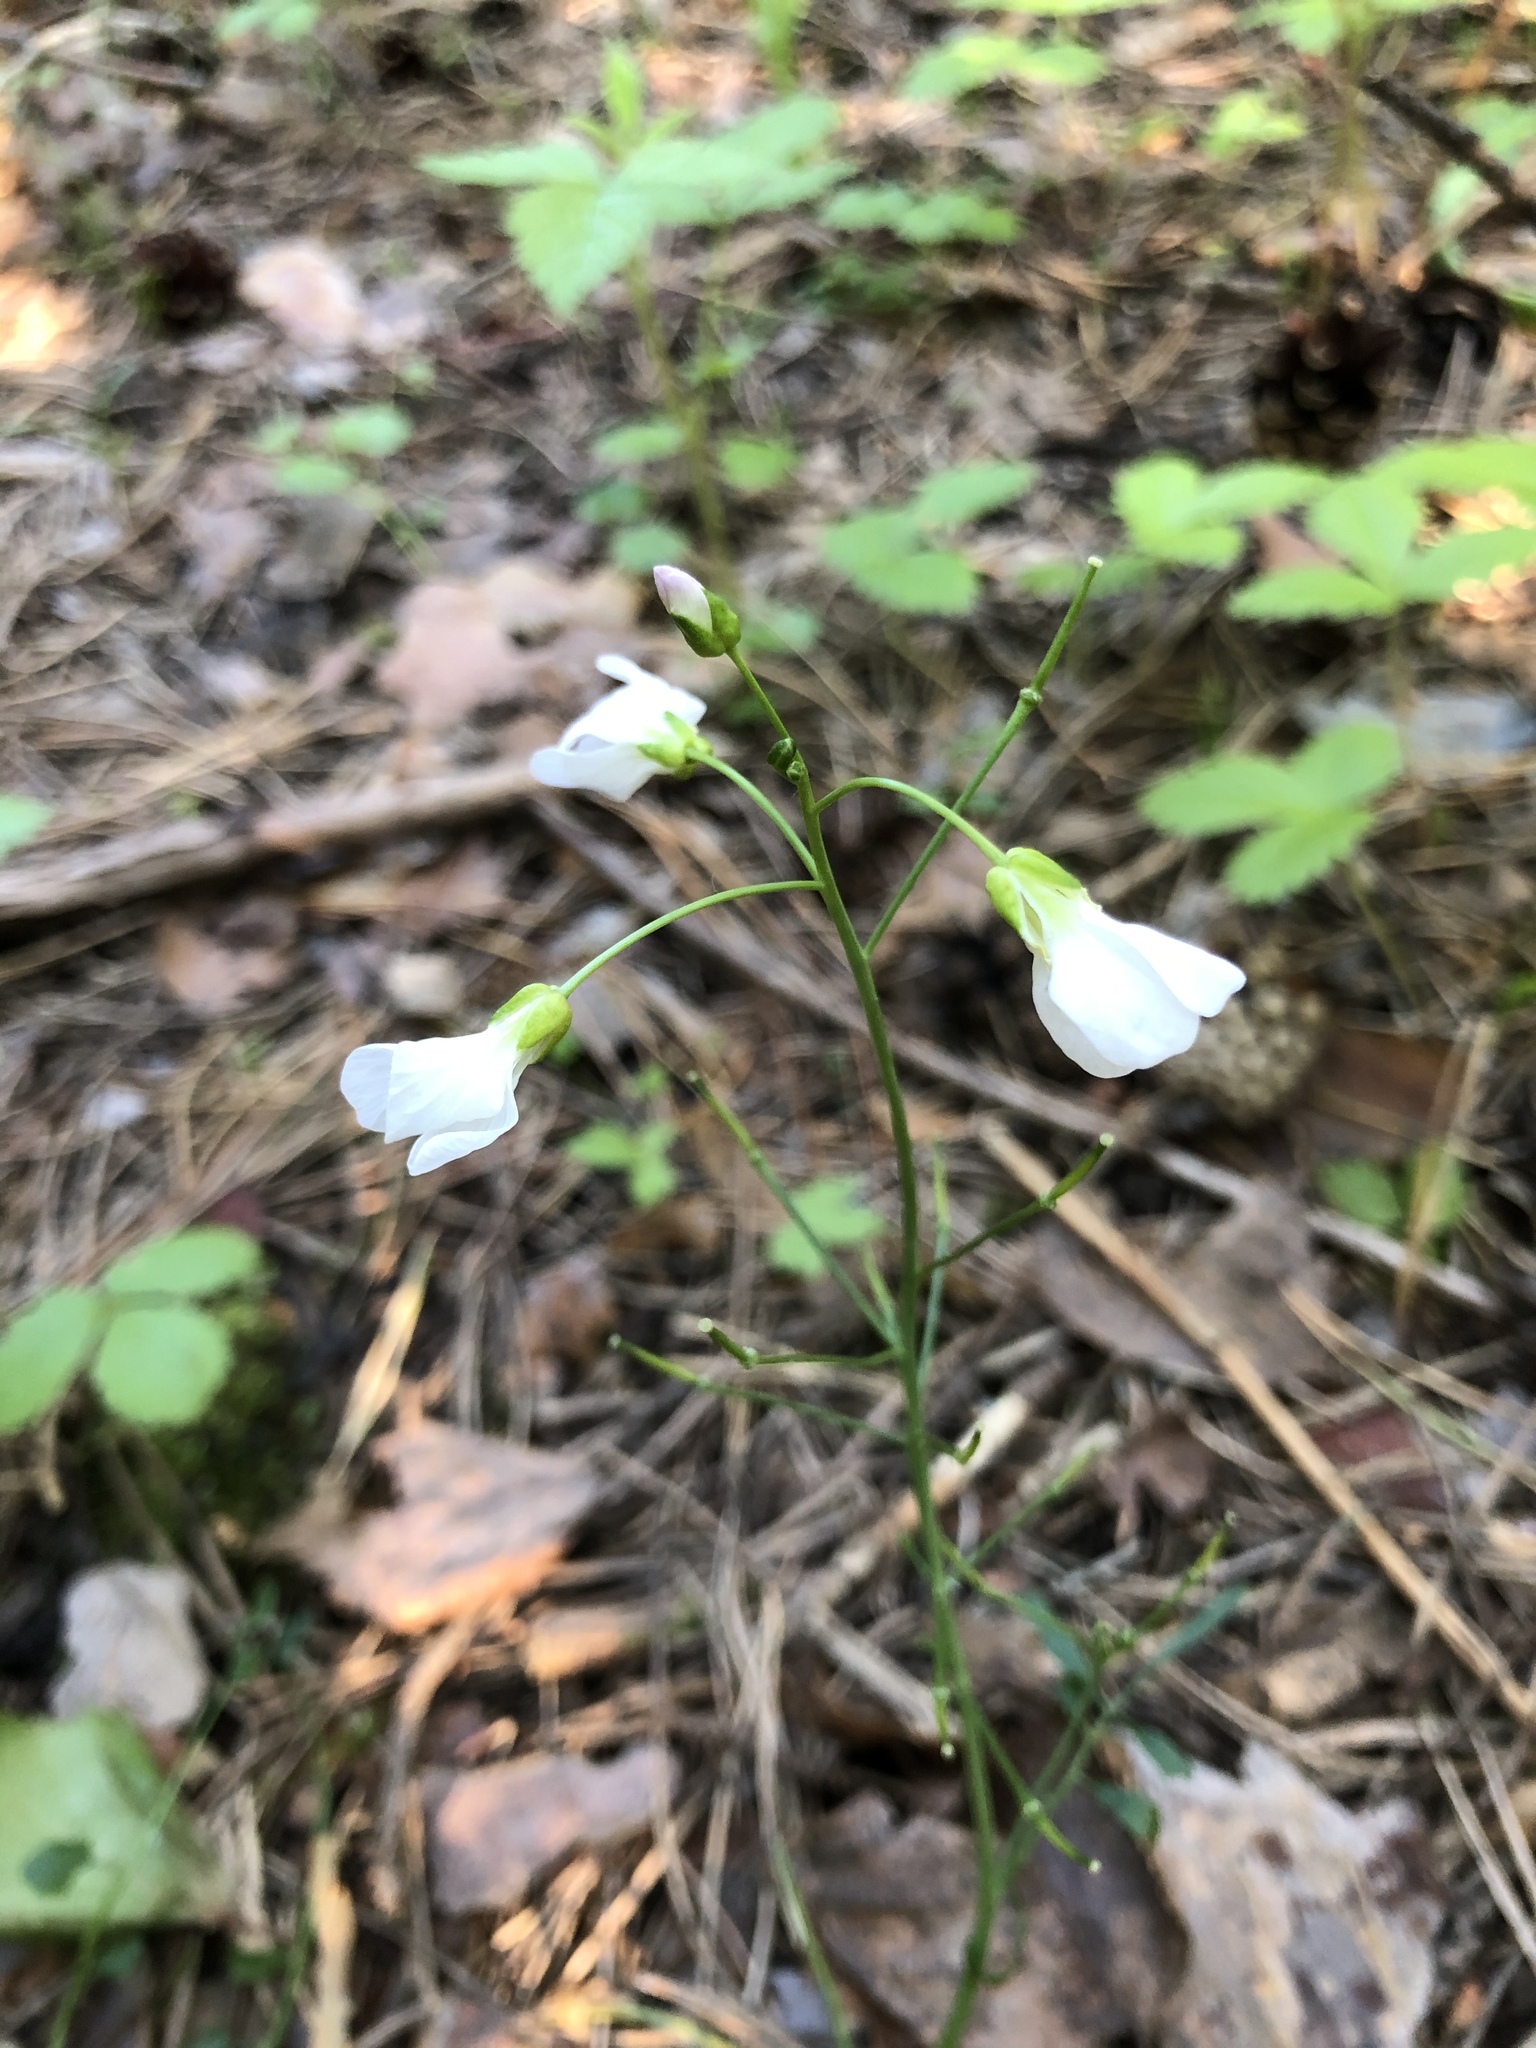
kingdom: Plantae
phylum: Tracheophyta
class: Magnoliopsida
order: Brassicales
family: Brassicaceae
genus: Cardamine
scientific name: Cardamine pratensis
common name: Cuckoo flower
